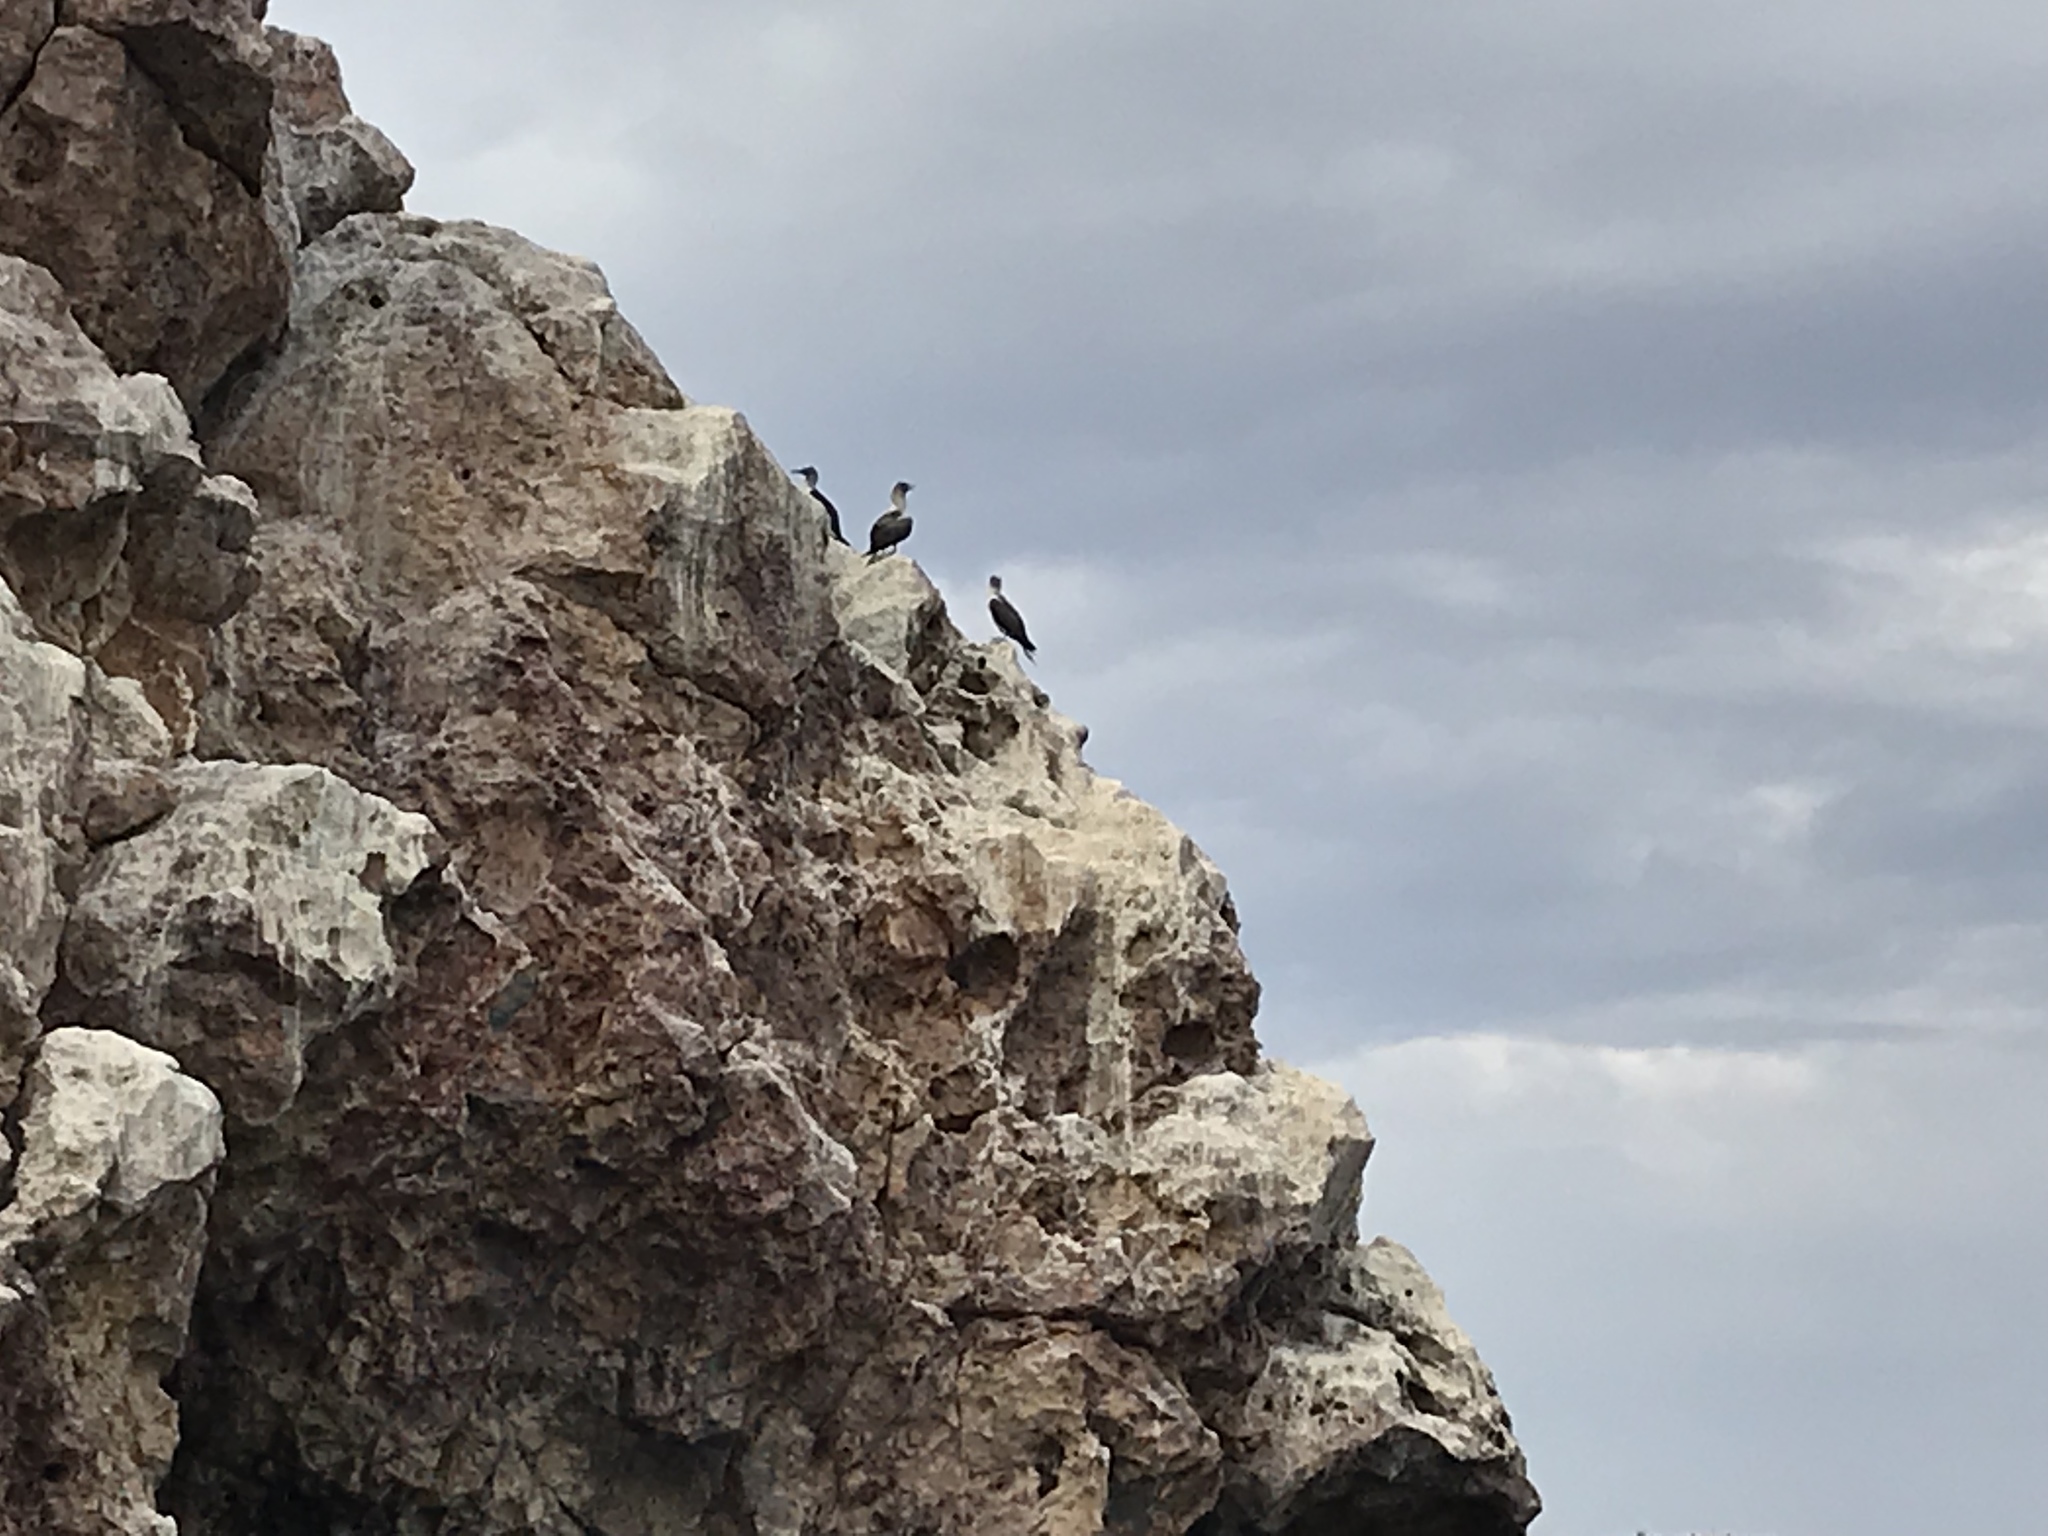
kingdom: Animalia
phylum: Chordata
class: Aves
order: Suliformes
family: Sulidae
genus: Sula
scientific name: Sula nebouxii
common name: Blue-footed booby
